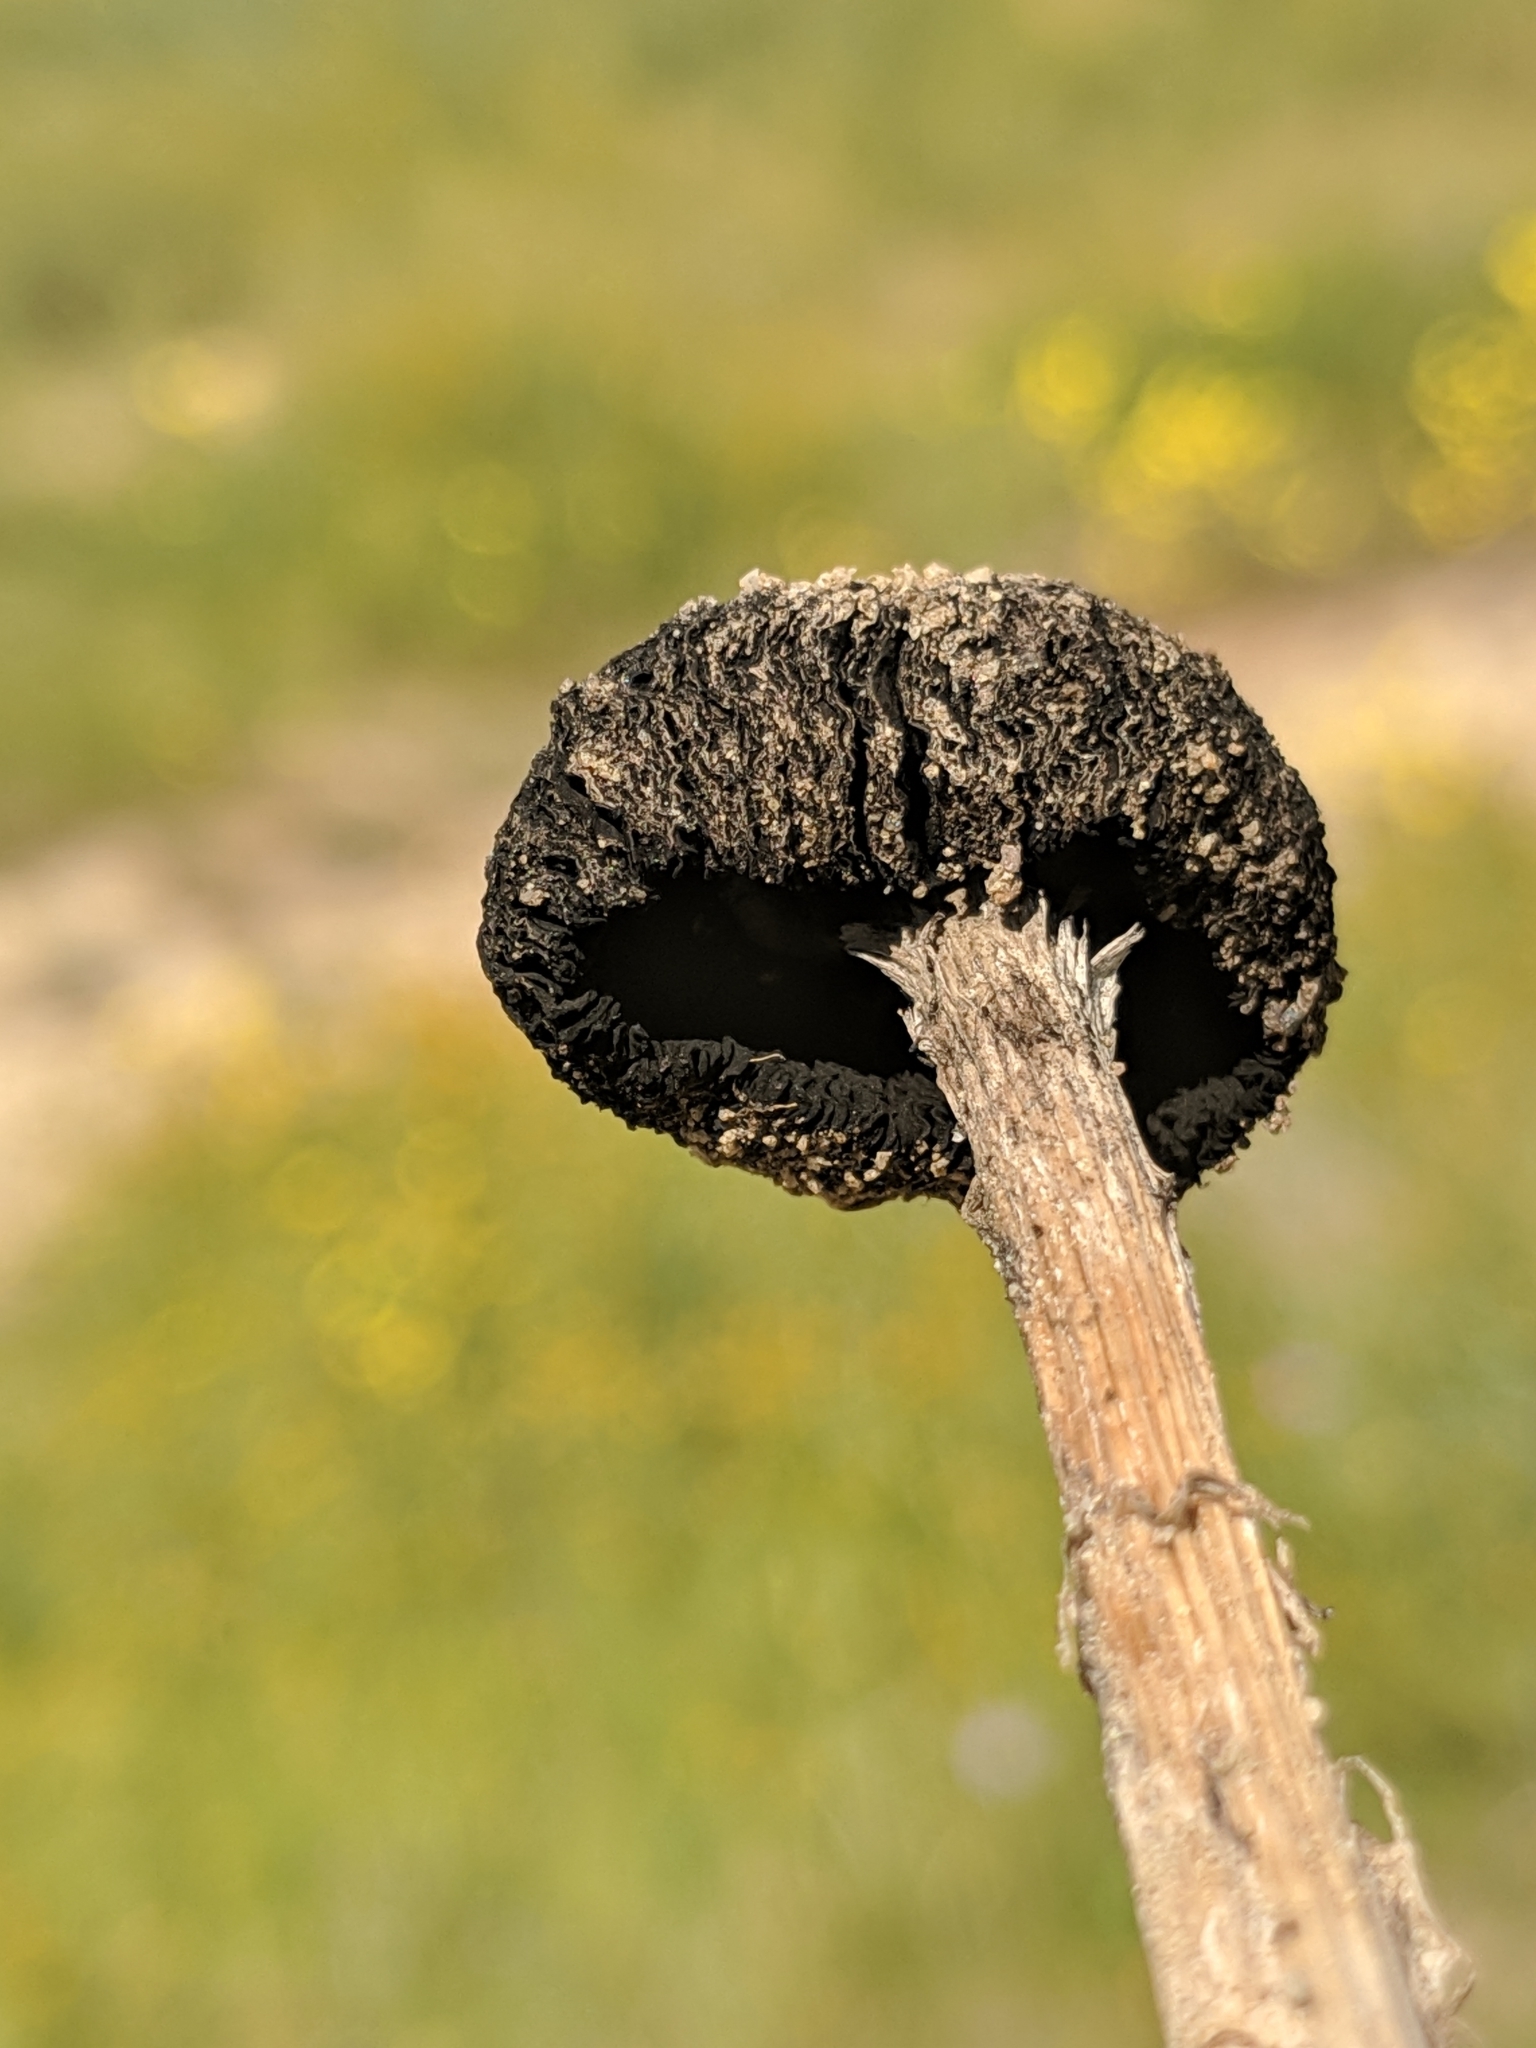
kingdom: Fungi
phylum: Basidiomycota
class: Agaricomycetes
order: Agaricales
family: Agaricaceae
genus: Montagnea
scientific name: Montagnea arenaria
